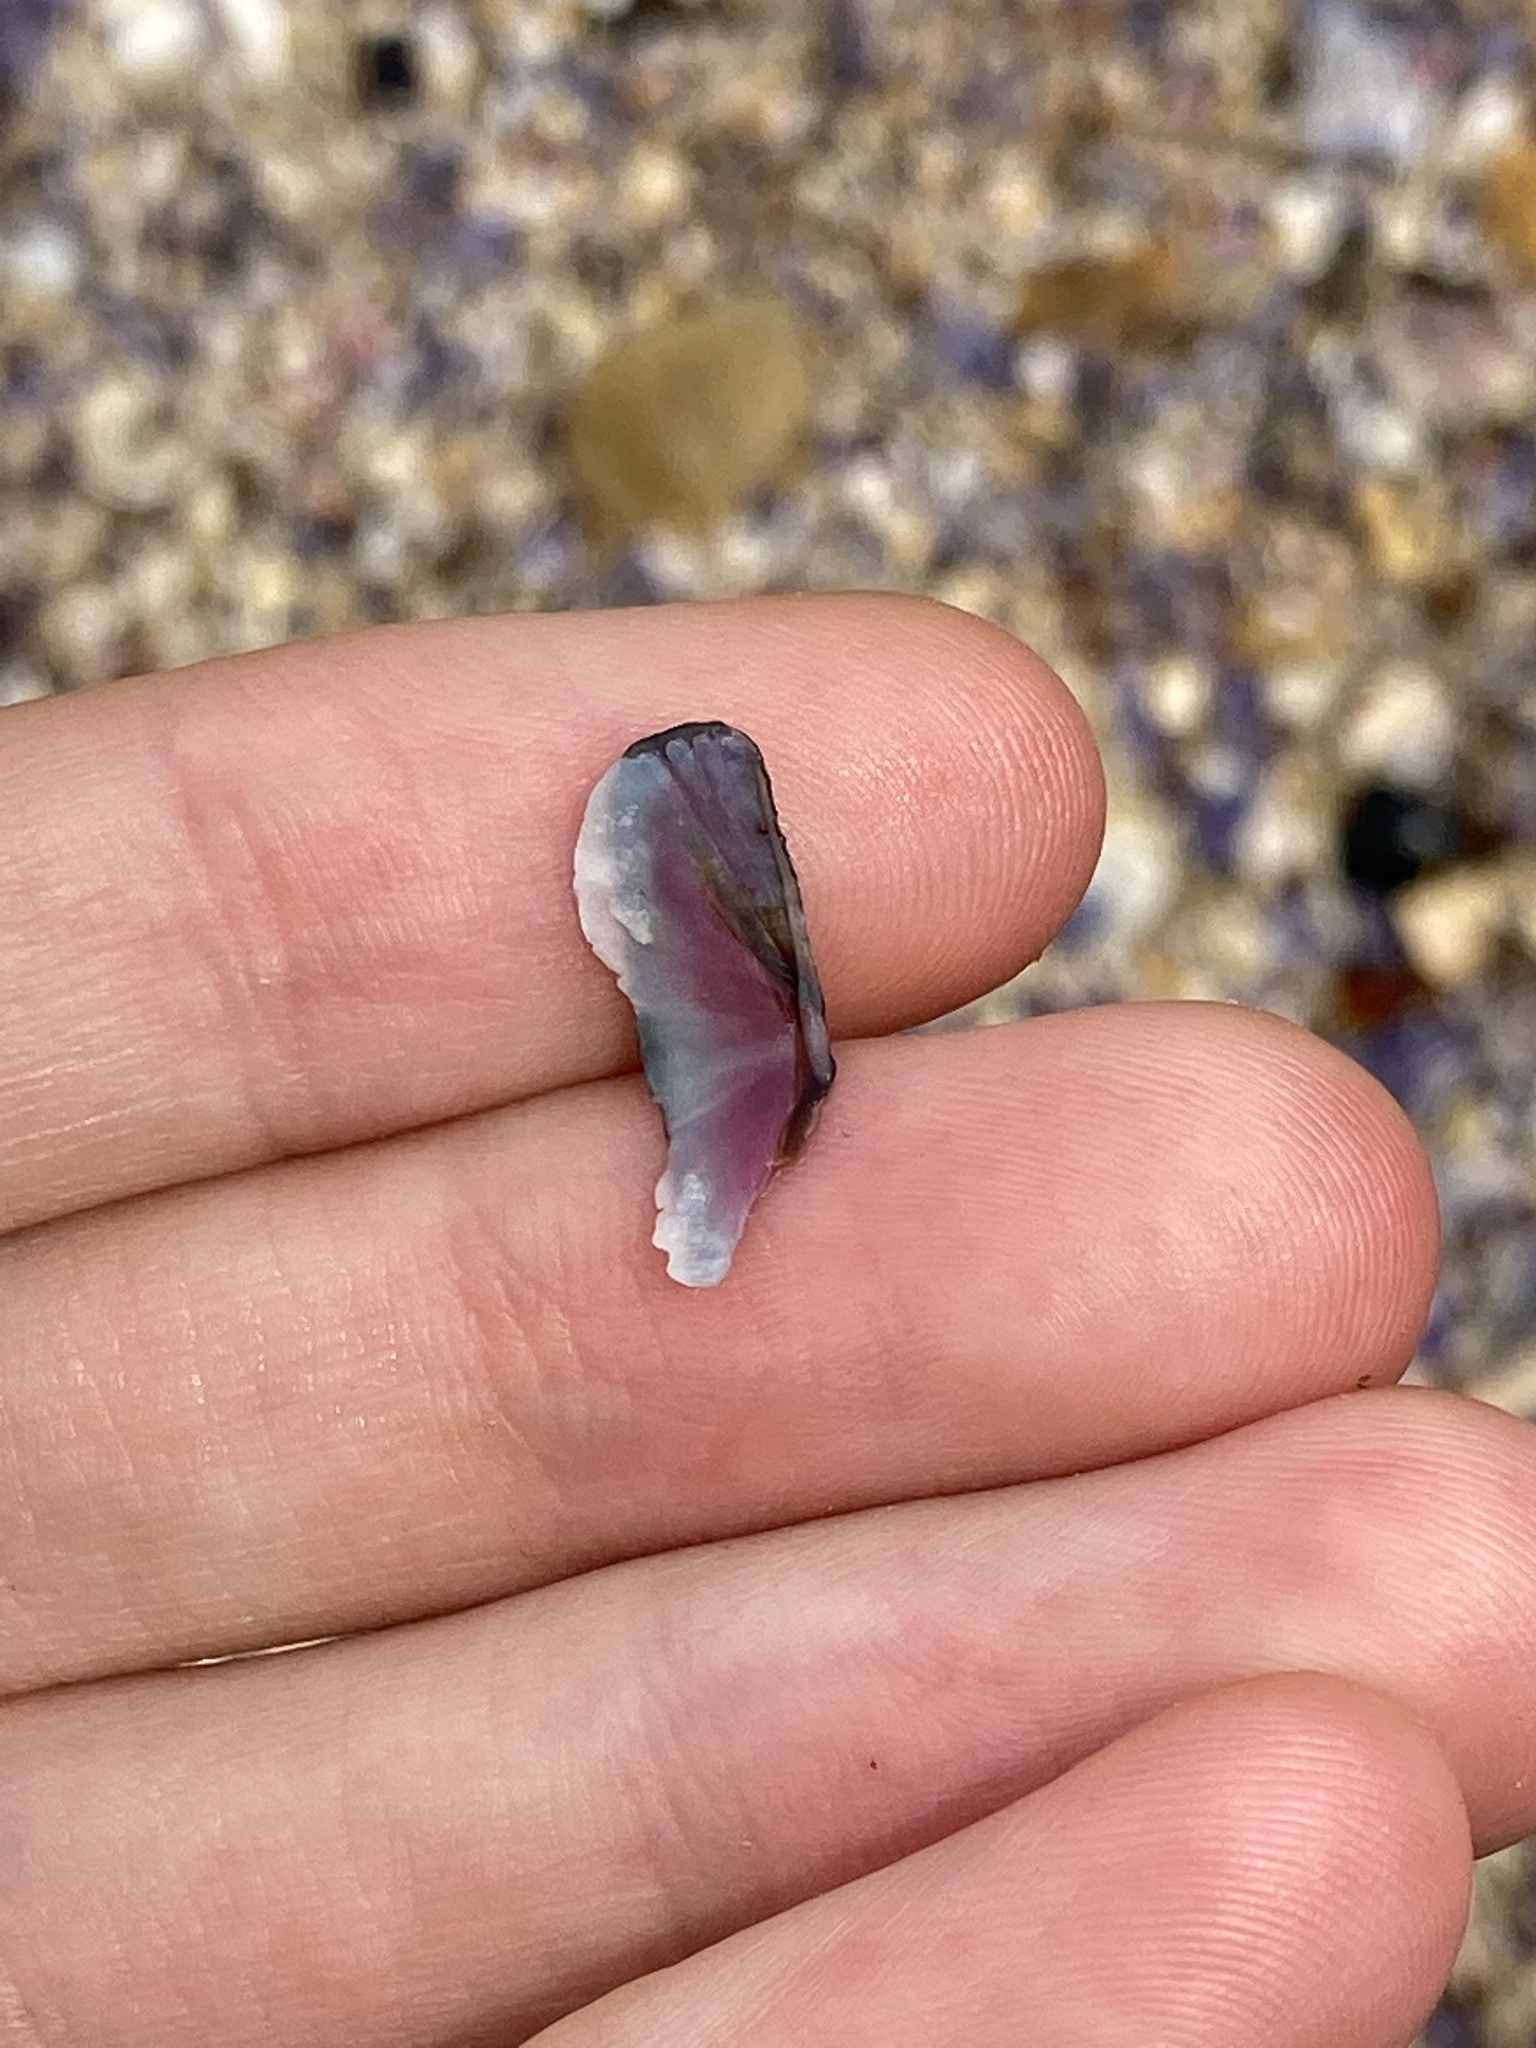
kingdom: Animalia
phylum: Mollusca
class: Polyplacophora
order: Chitonida
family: Ischnochitonidae
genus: Ischnochiton
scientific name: Ischnochiton australis
